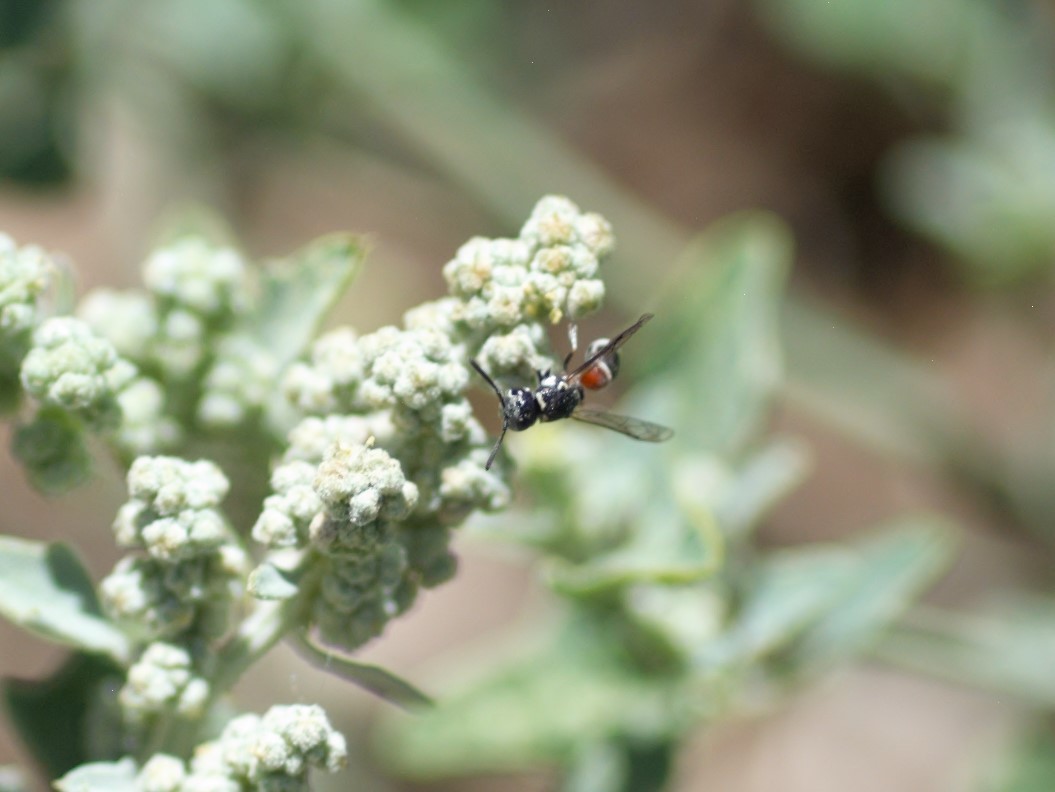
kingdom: Animalia
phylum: Arthropoda
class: Insecta
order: Hymenoptera
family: Eumenidae
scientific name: Eumenidae
